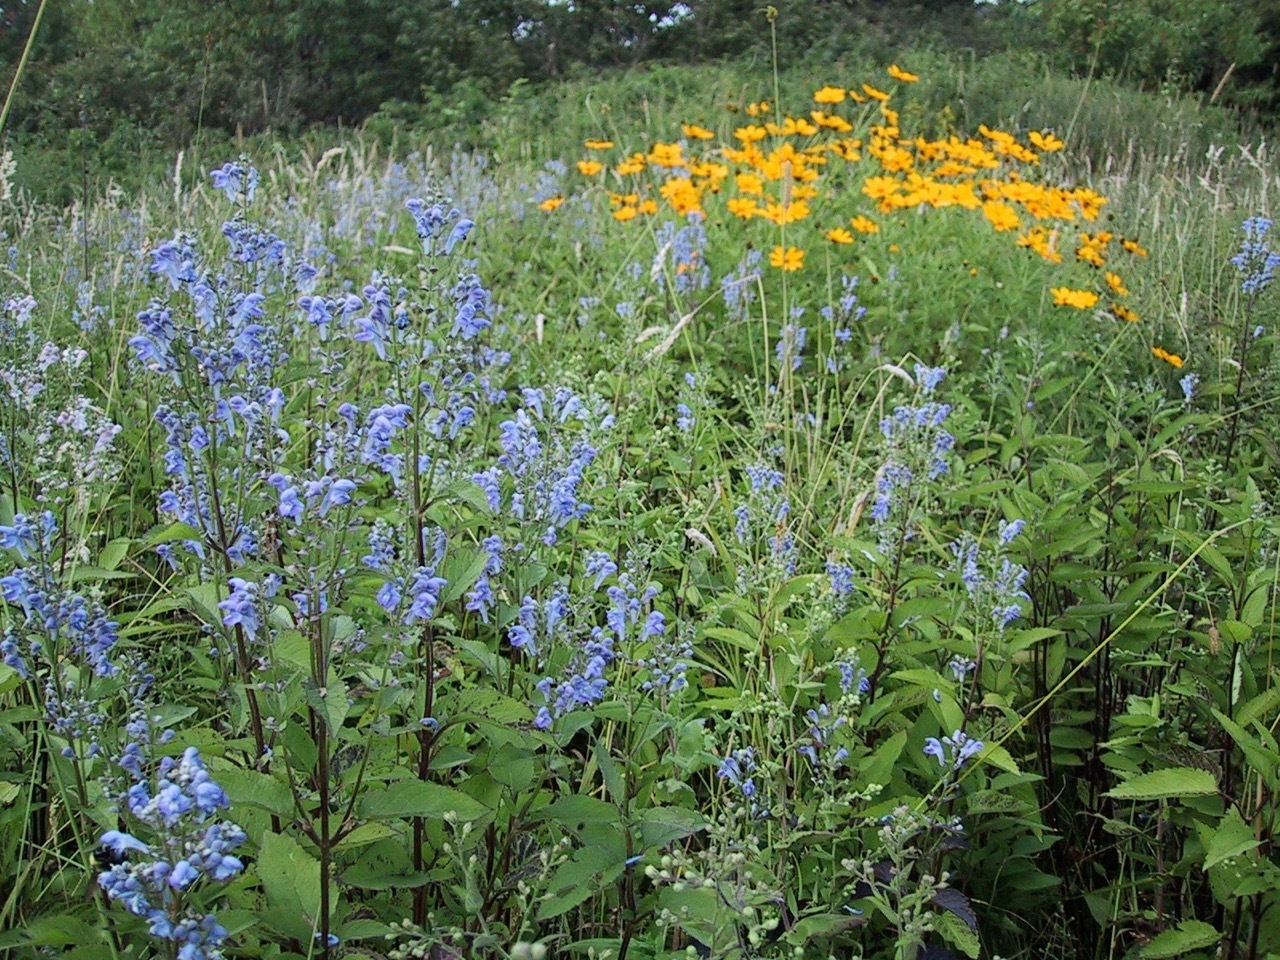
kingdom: Plantae
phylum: Tracheophyta
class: Magnoliopsida
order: Lamiales
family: Lamiaceae
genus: Scutellaria
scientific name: Scutellaria incana
